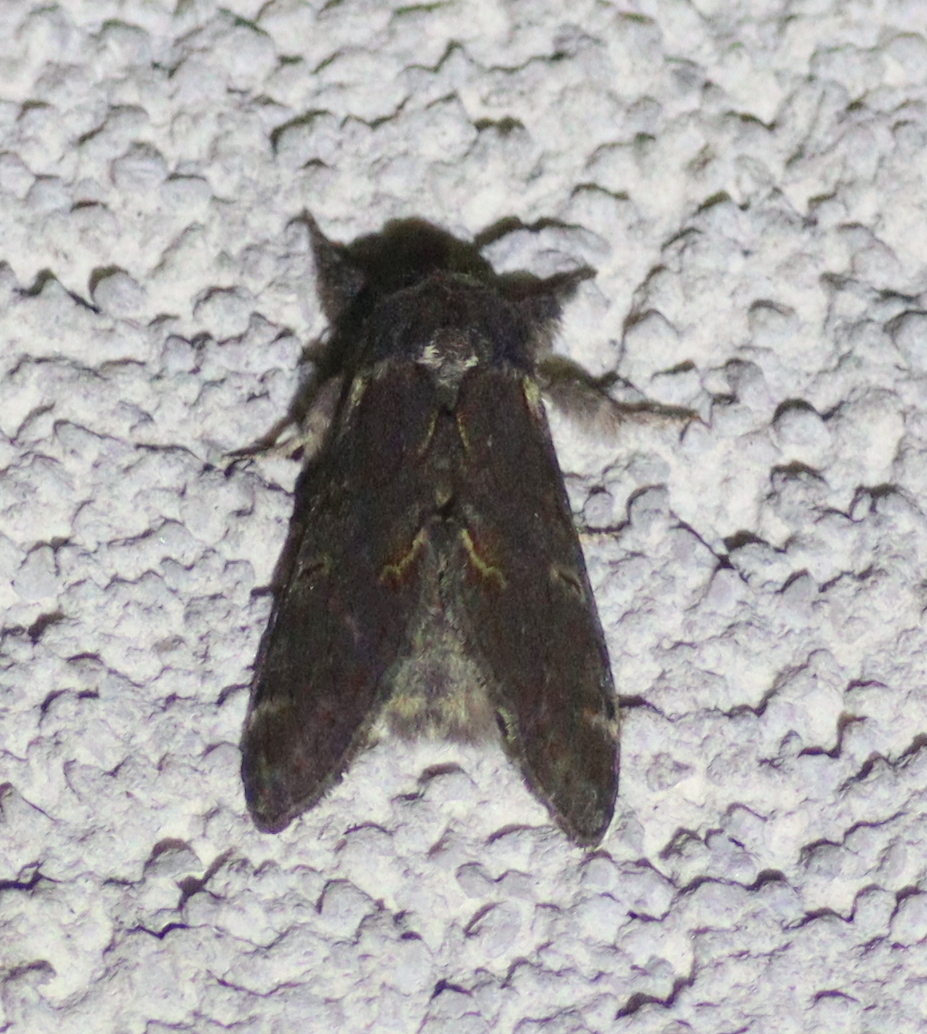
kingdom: Animalia
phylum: Arthropoda
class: Insecta
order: Lepidoptera
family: Notodontidae
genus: Notodonta
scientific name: Notodonta dromedarius
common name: Iron prominent
